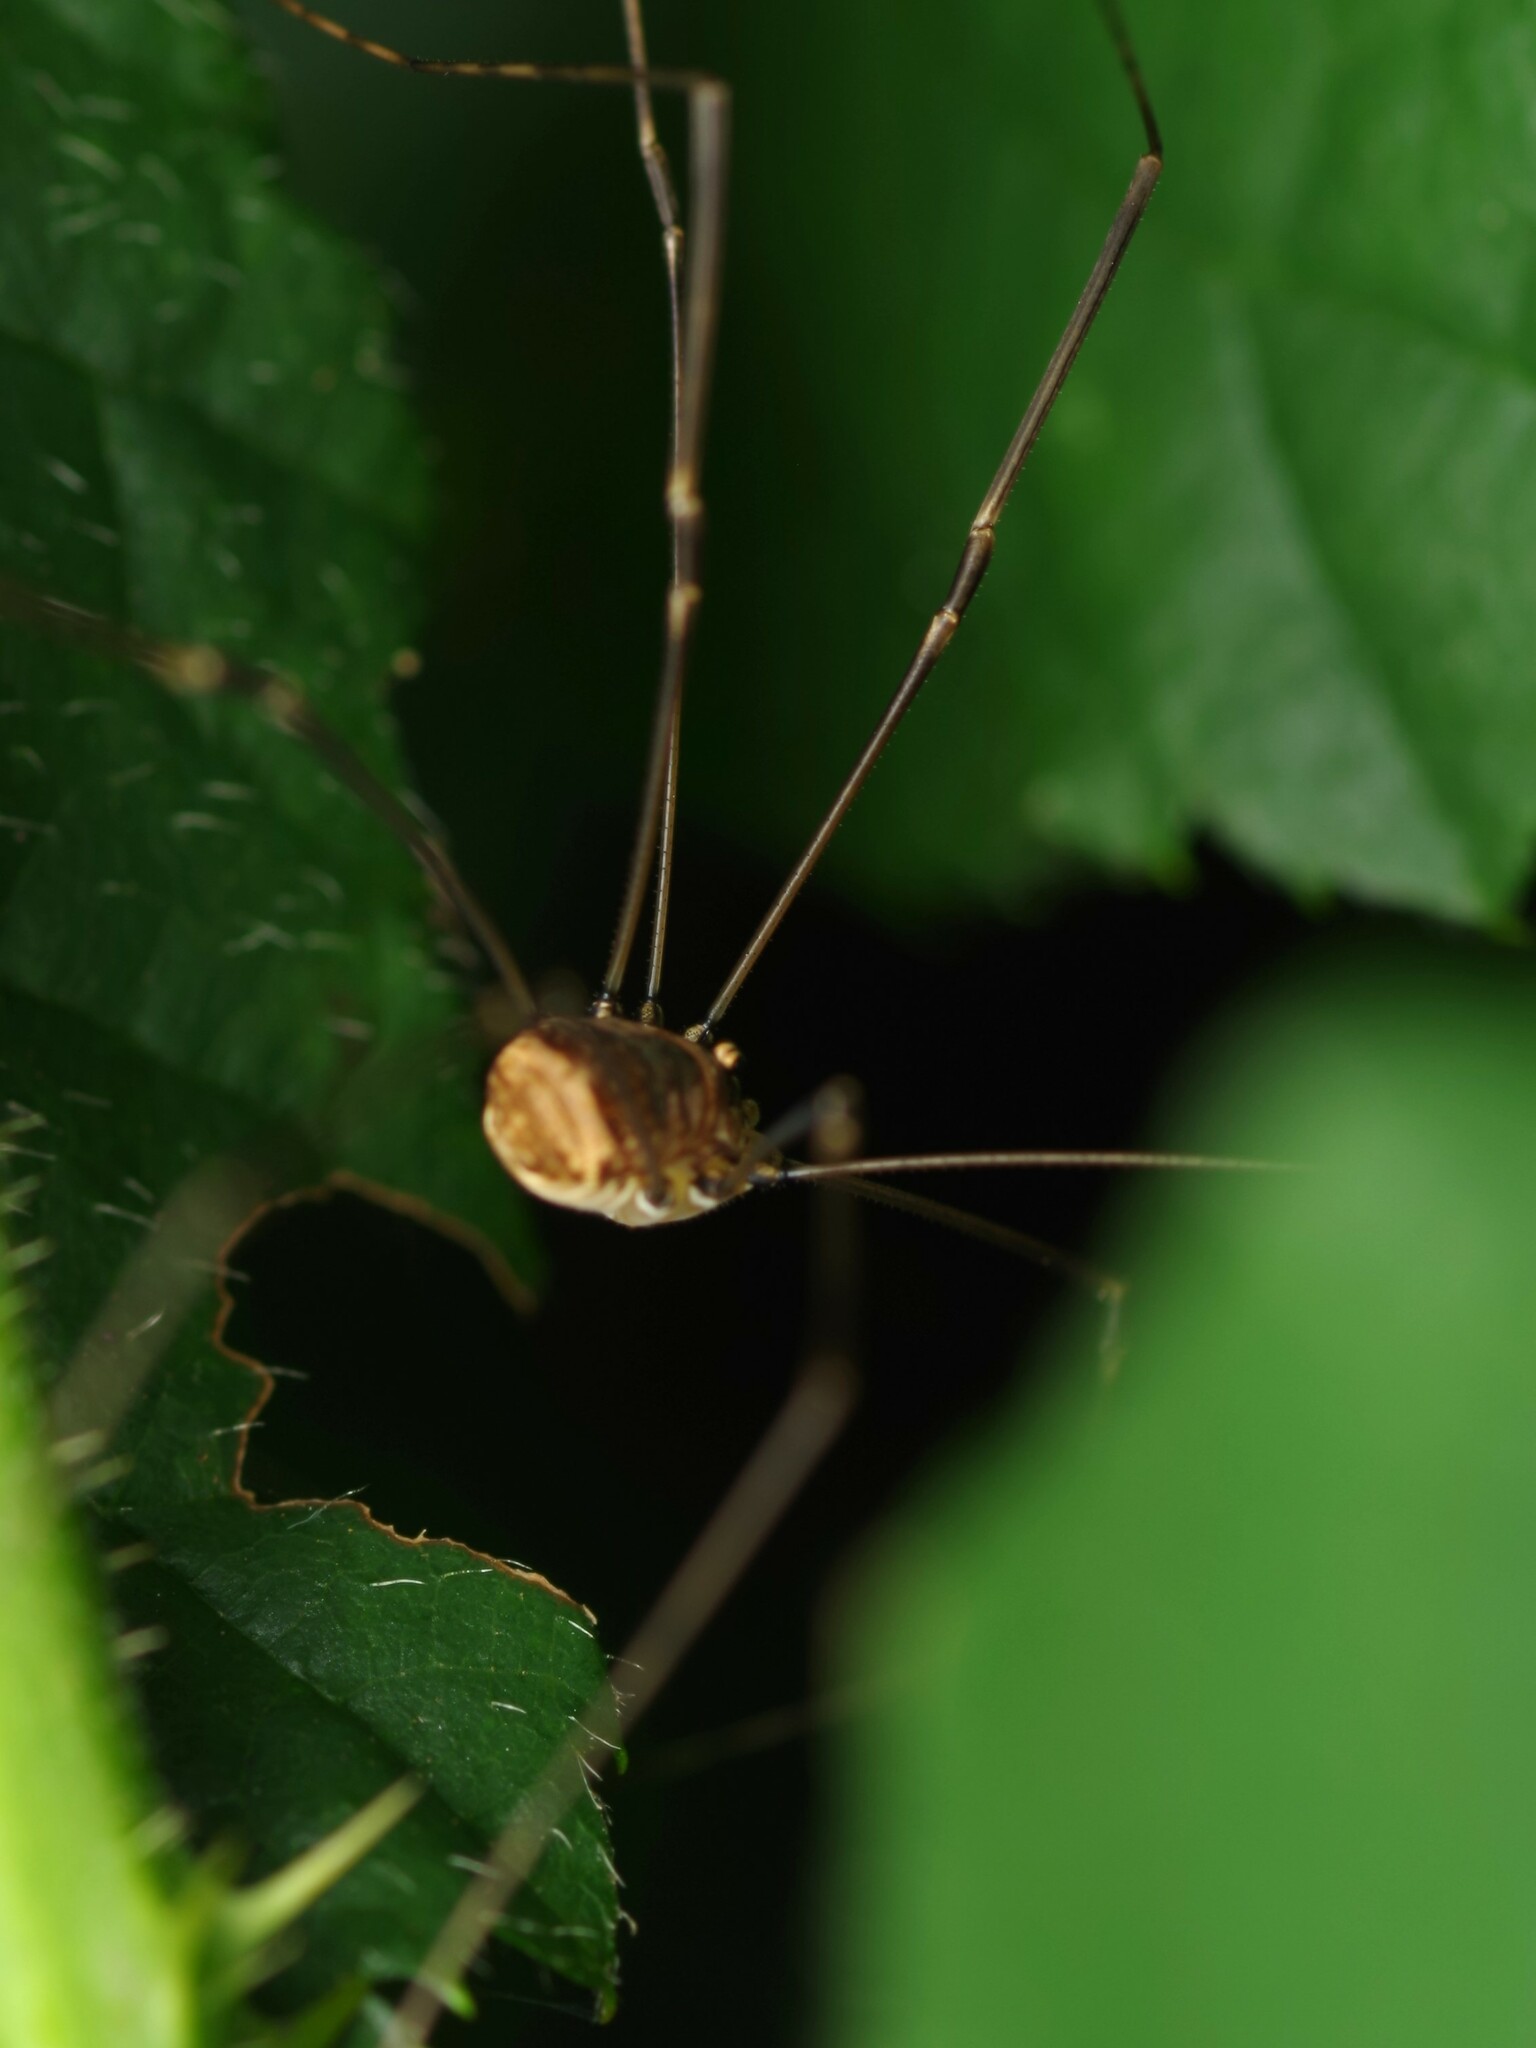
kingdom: Animalia
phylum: Arthropoda
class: Arachnida
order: Opiliones
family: Sclerosomatidae
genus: Leiobunum
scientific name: Leiobunum blackwalli
